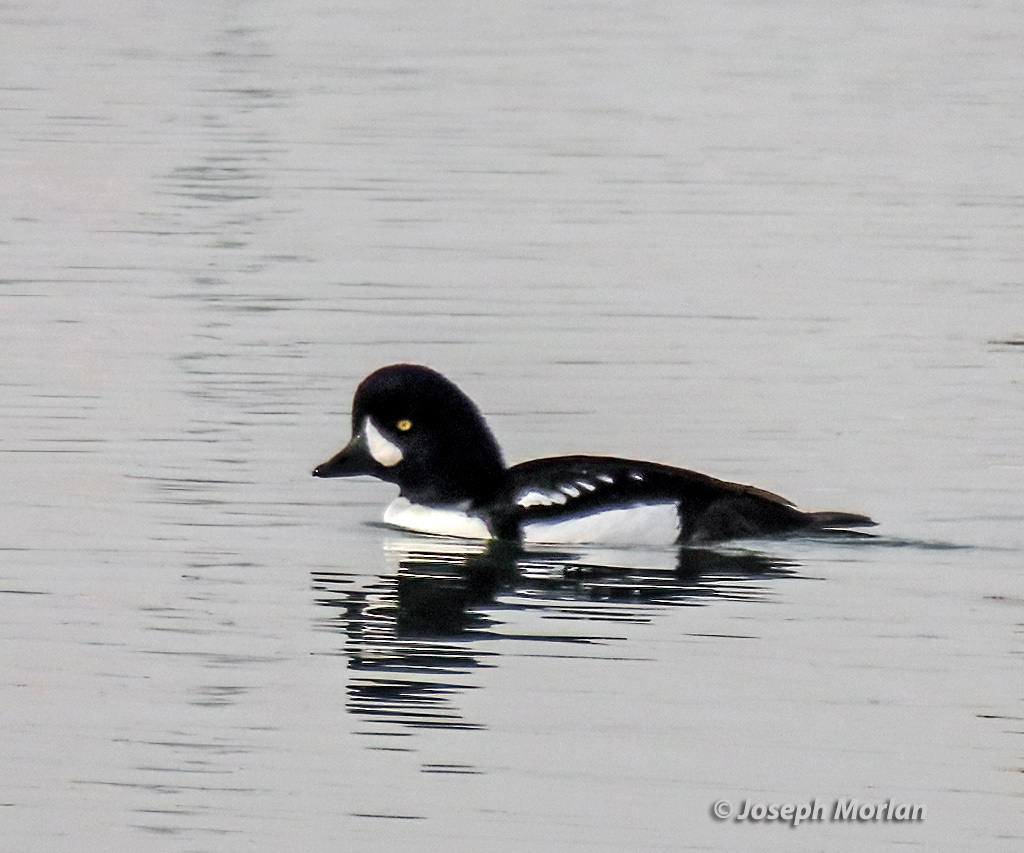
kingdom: Animalia
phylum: Chordata
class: Aves
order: Anseriformes
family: Anatidae
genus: Bucephala
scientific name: Bucephala islandica
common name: Barrow's goldeneye
